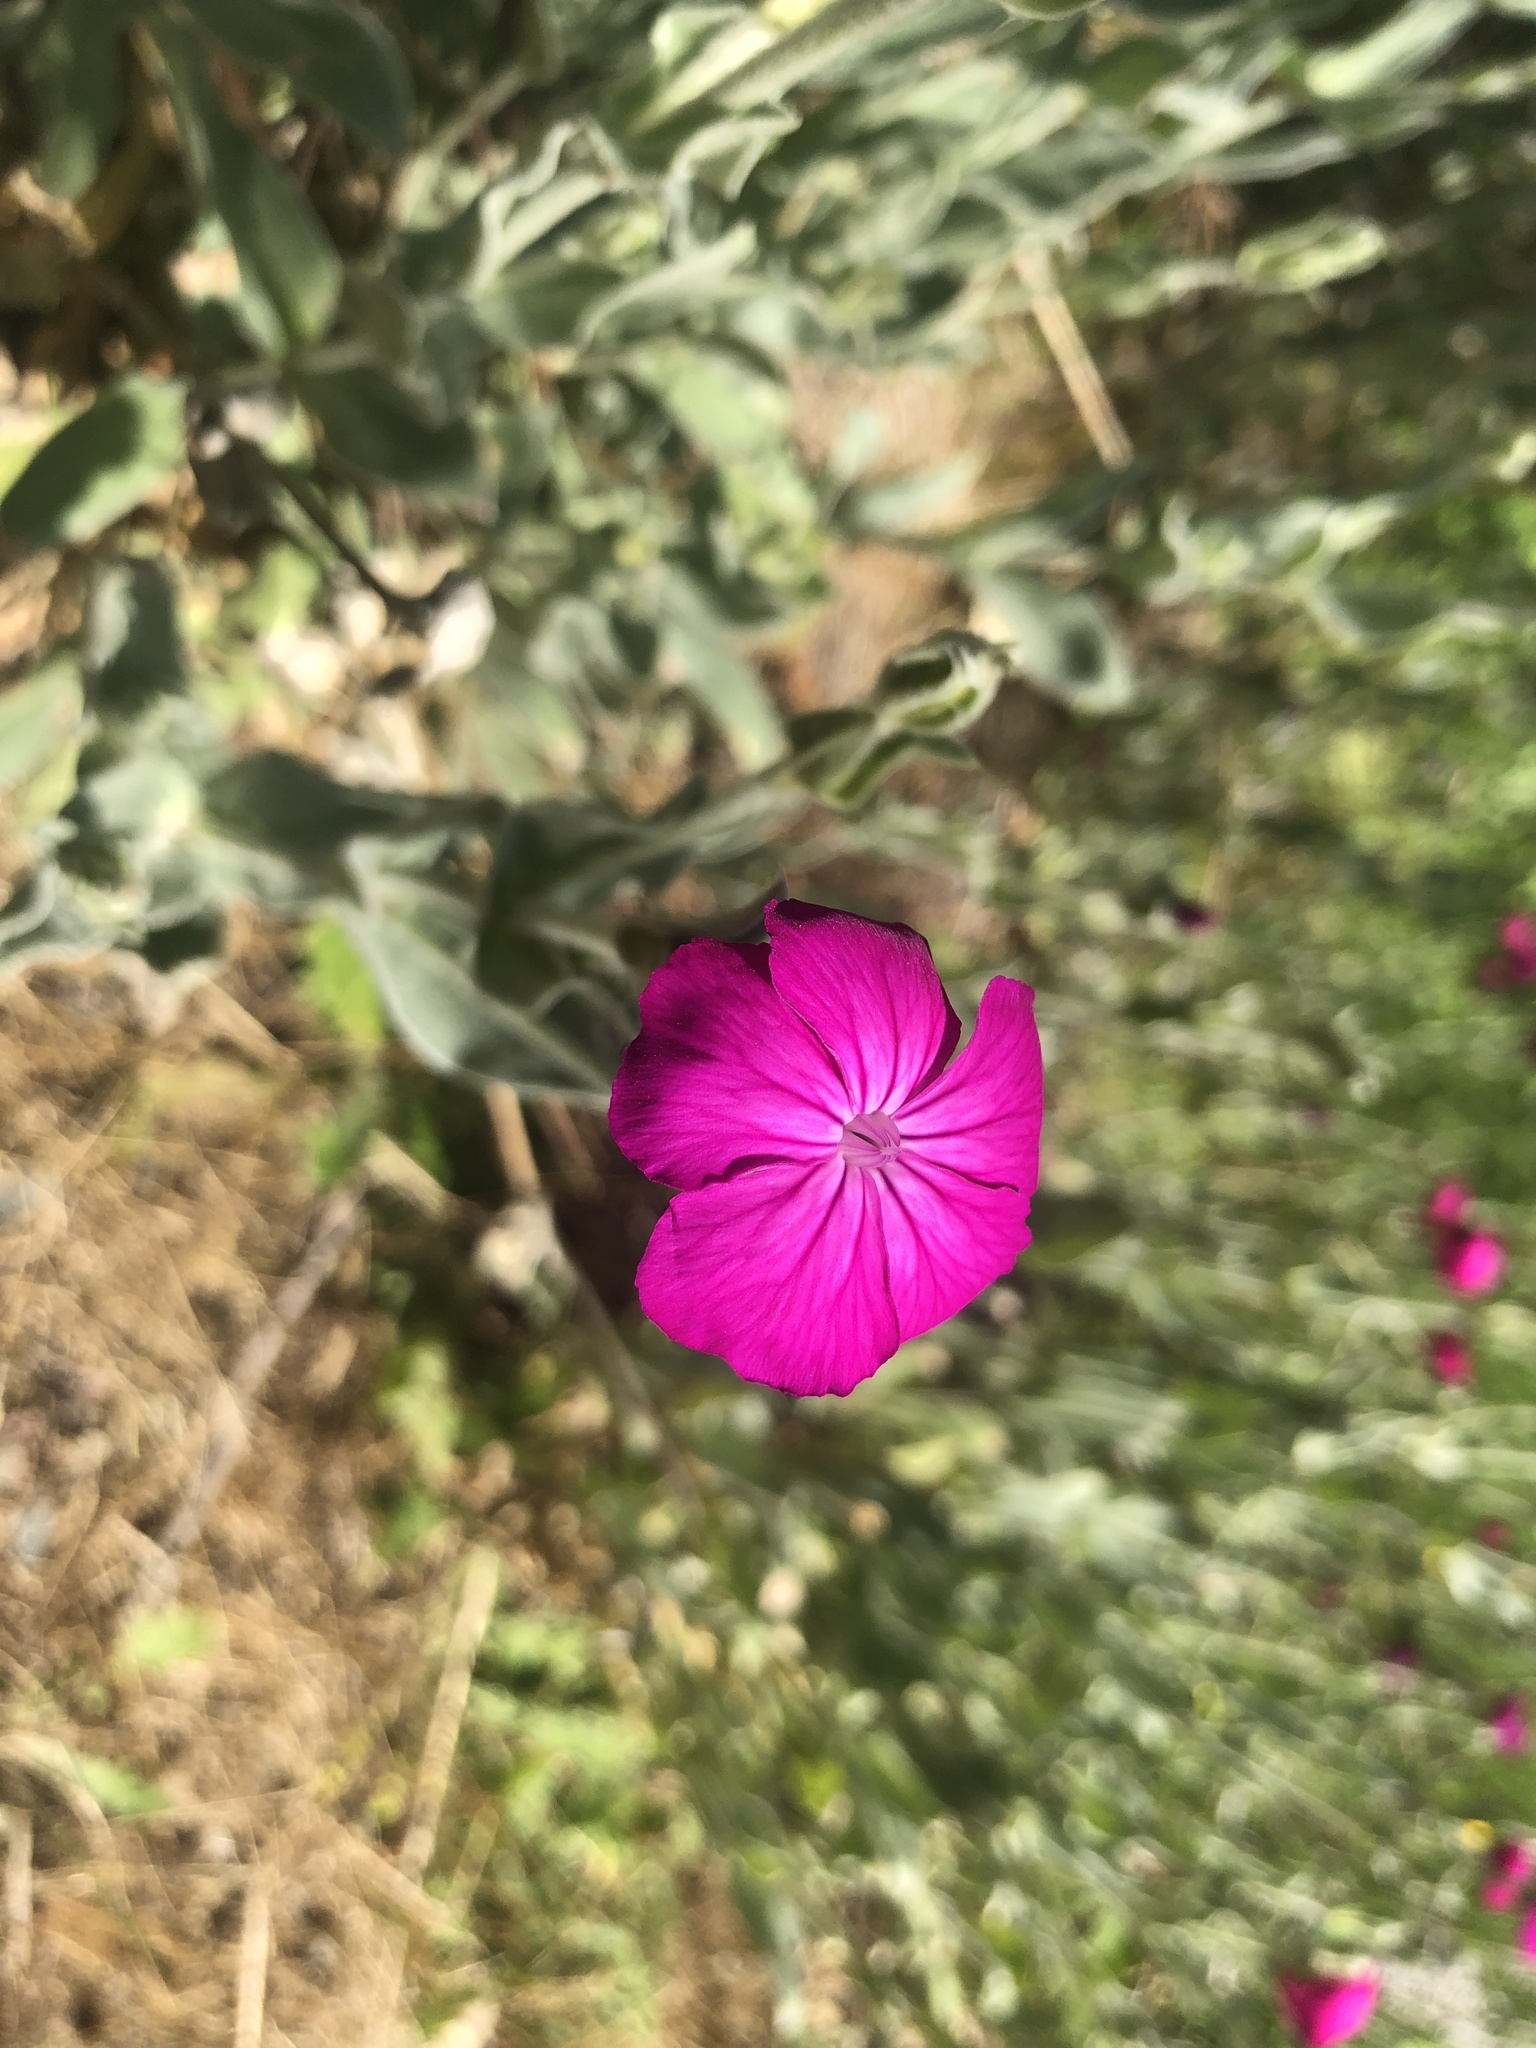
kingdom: Plantae
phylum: Tracheophyta
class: Magnoliopsida
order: Caryophyllales
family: Caryophyllaceae
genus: Silene
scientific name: Silene coronaria
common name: Rose campion
